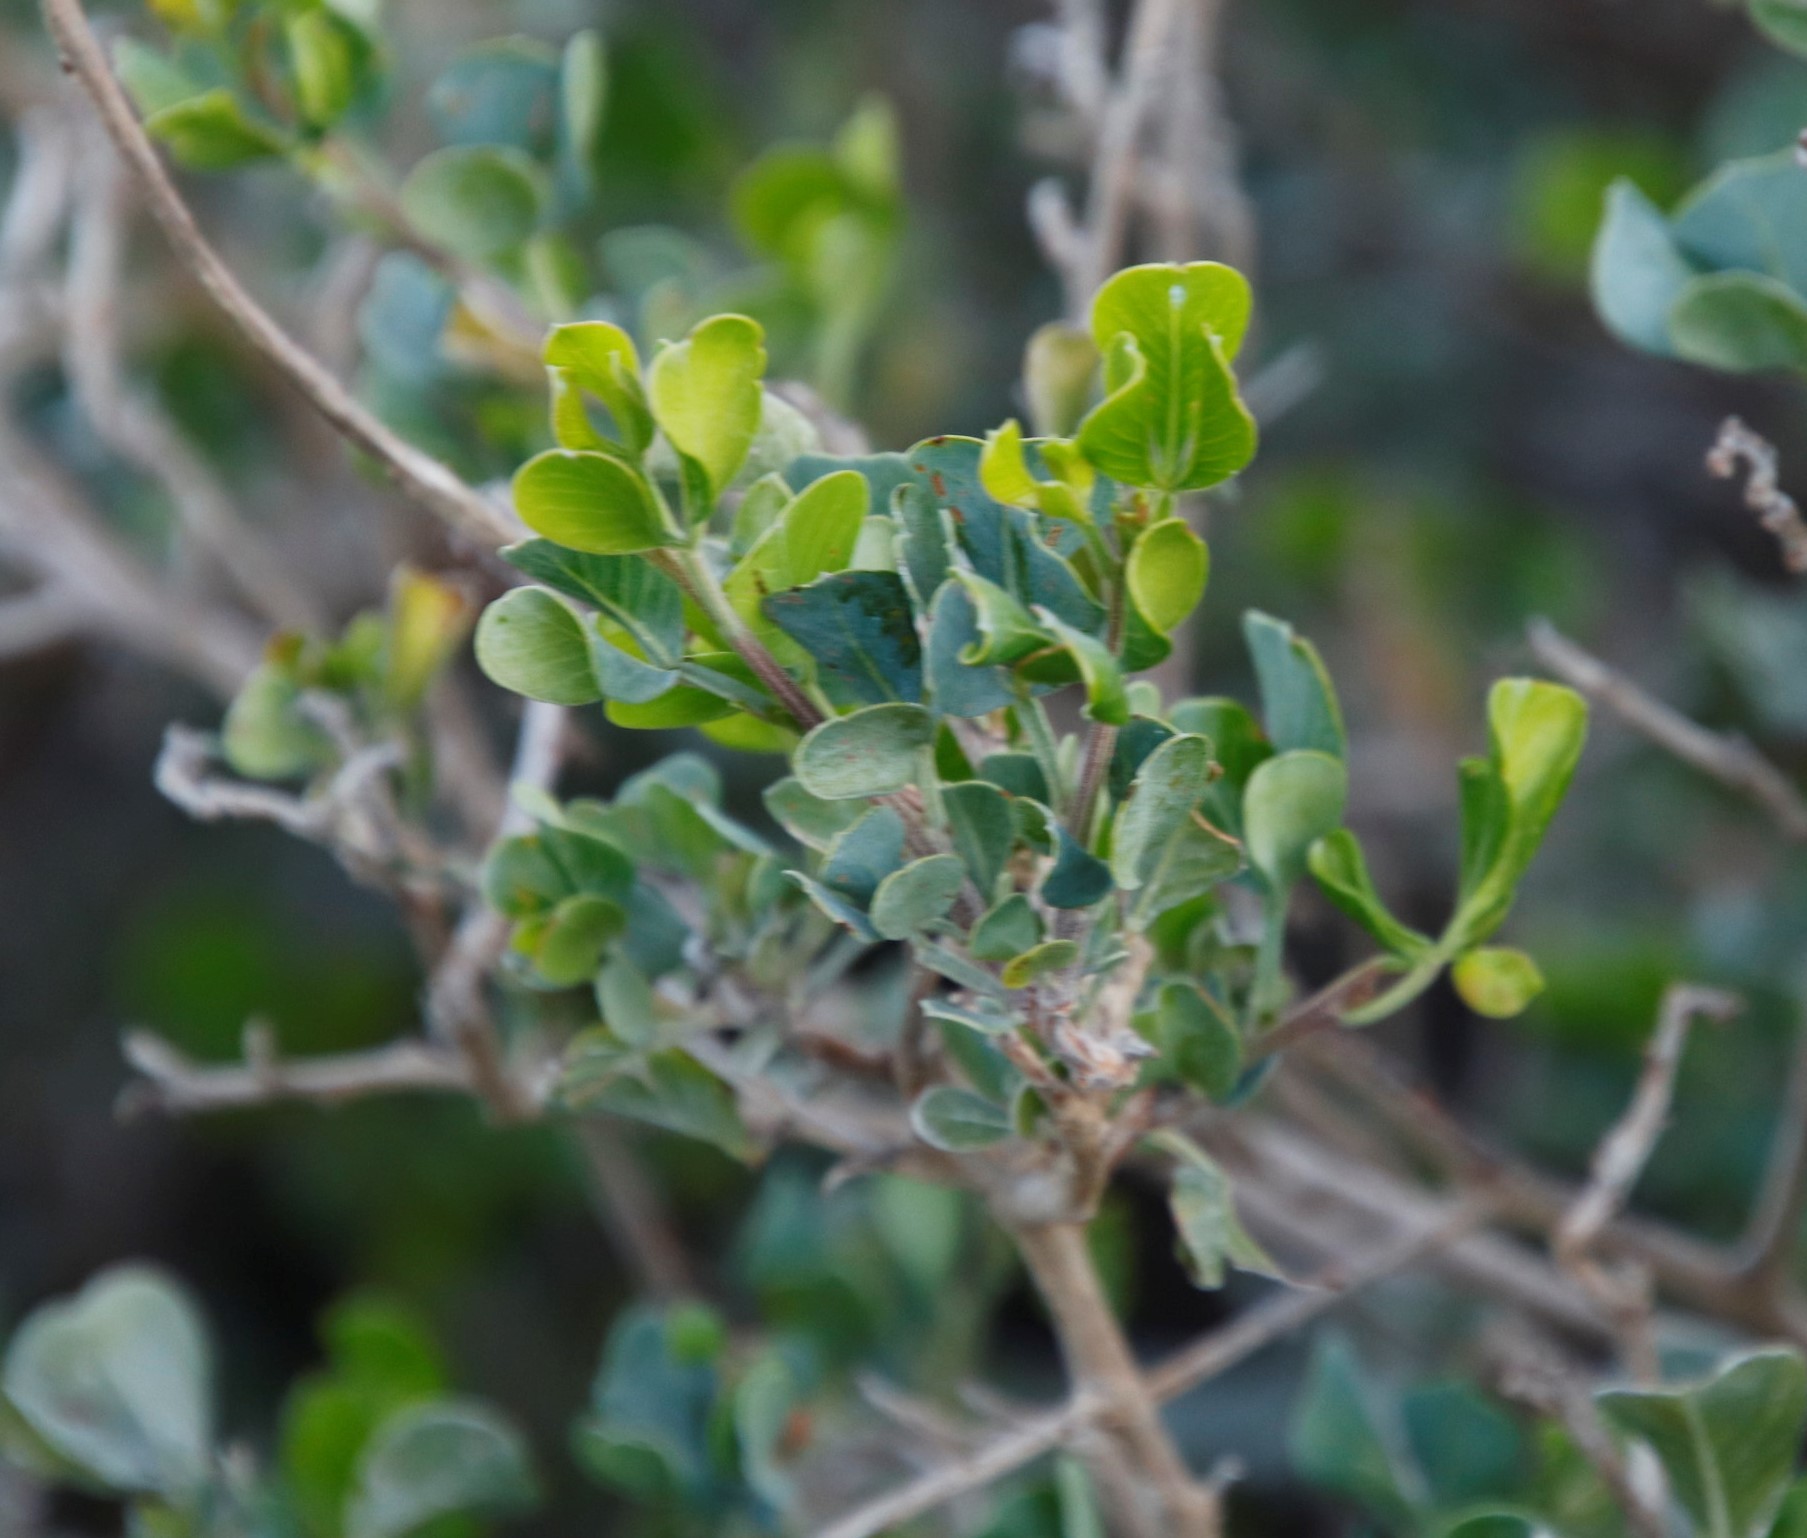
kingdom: Plantae
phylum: Tracheophyta
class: Magnoliopsida
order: Sapindales
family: Anacardiaceae
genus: Searsia
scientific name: Searsia glauca
